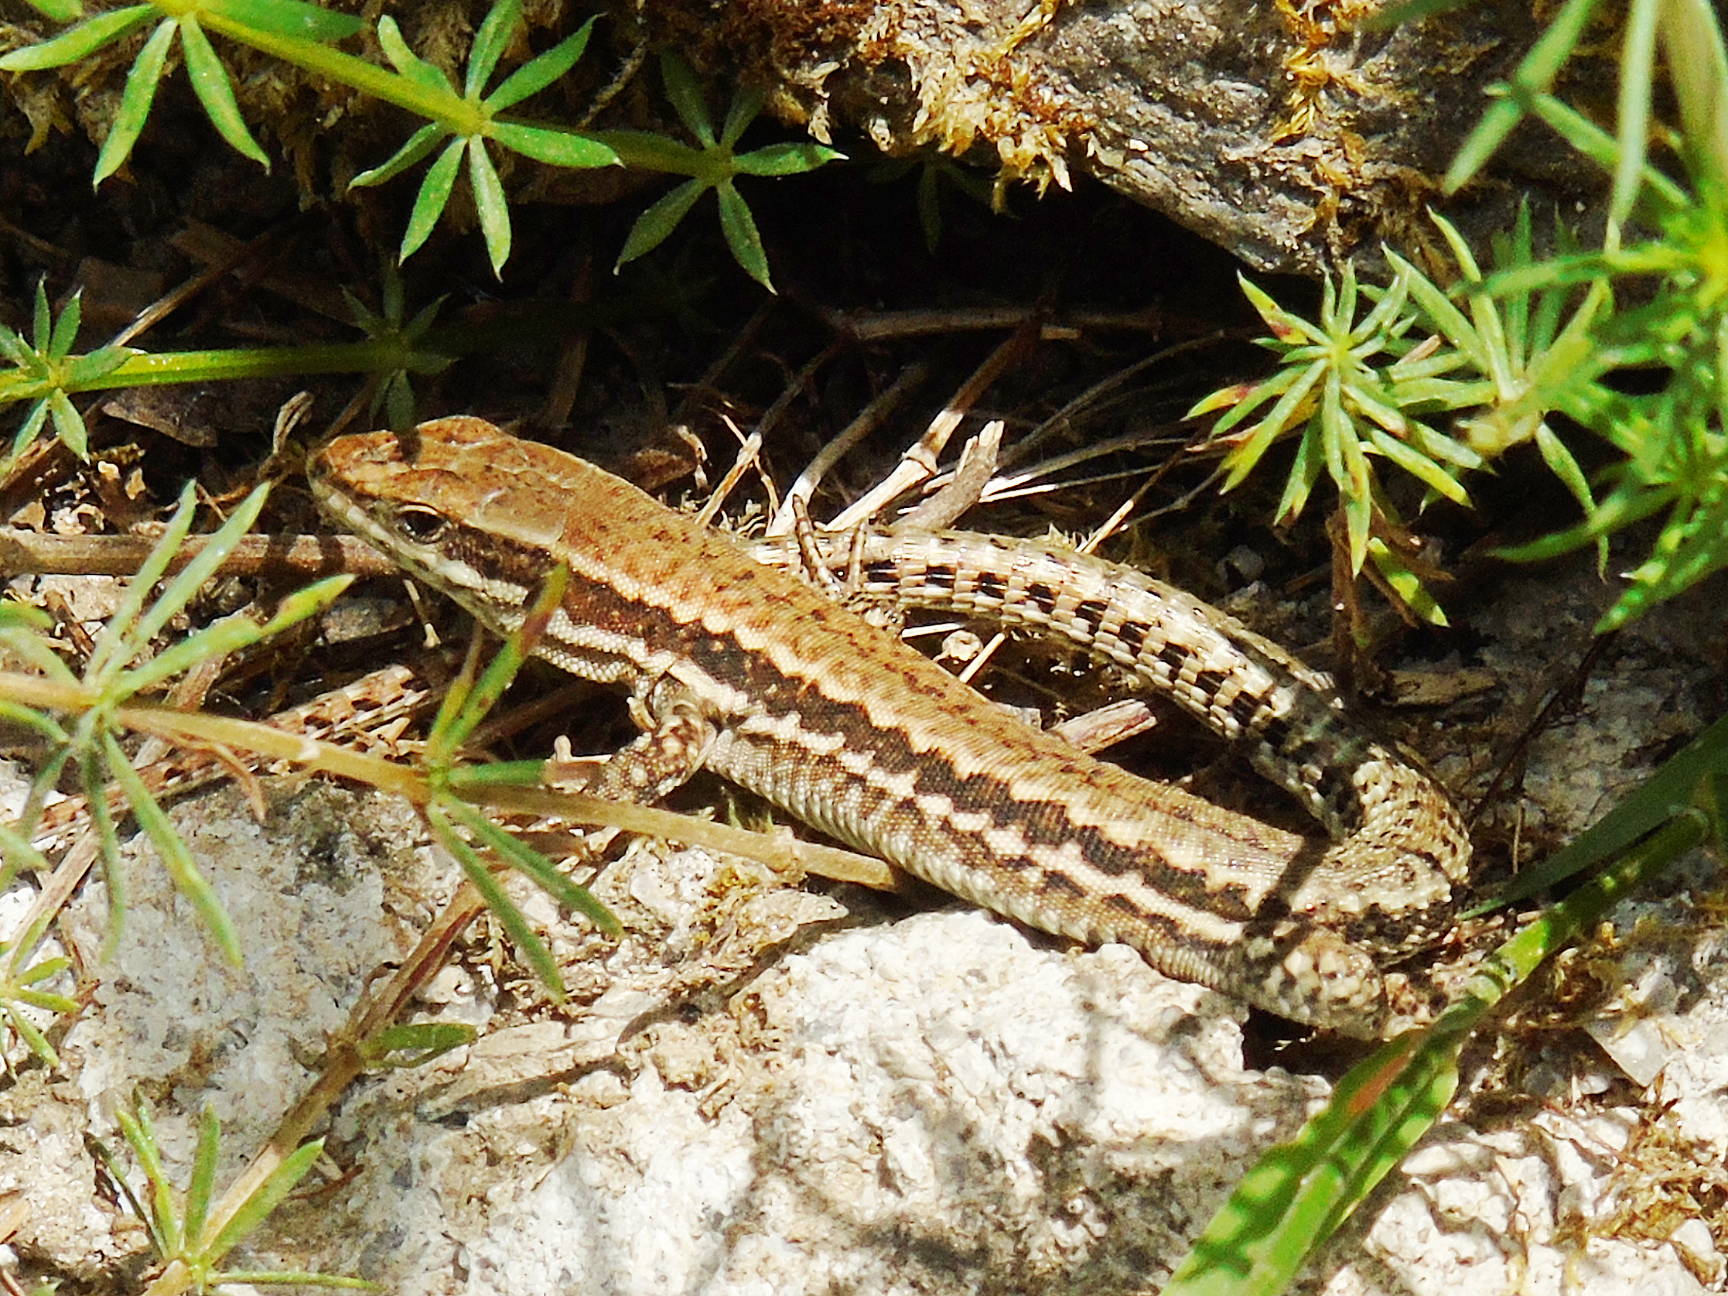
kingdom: Animalia
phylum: Chordata
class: Squamata
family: Lacertidae
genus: Podarcis
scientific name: Podarcis muralis
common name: Common wall lizard
